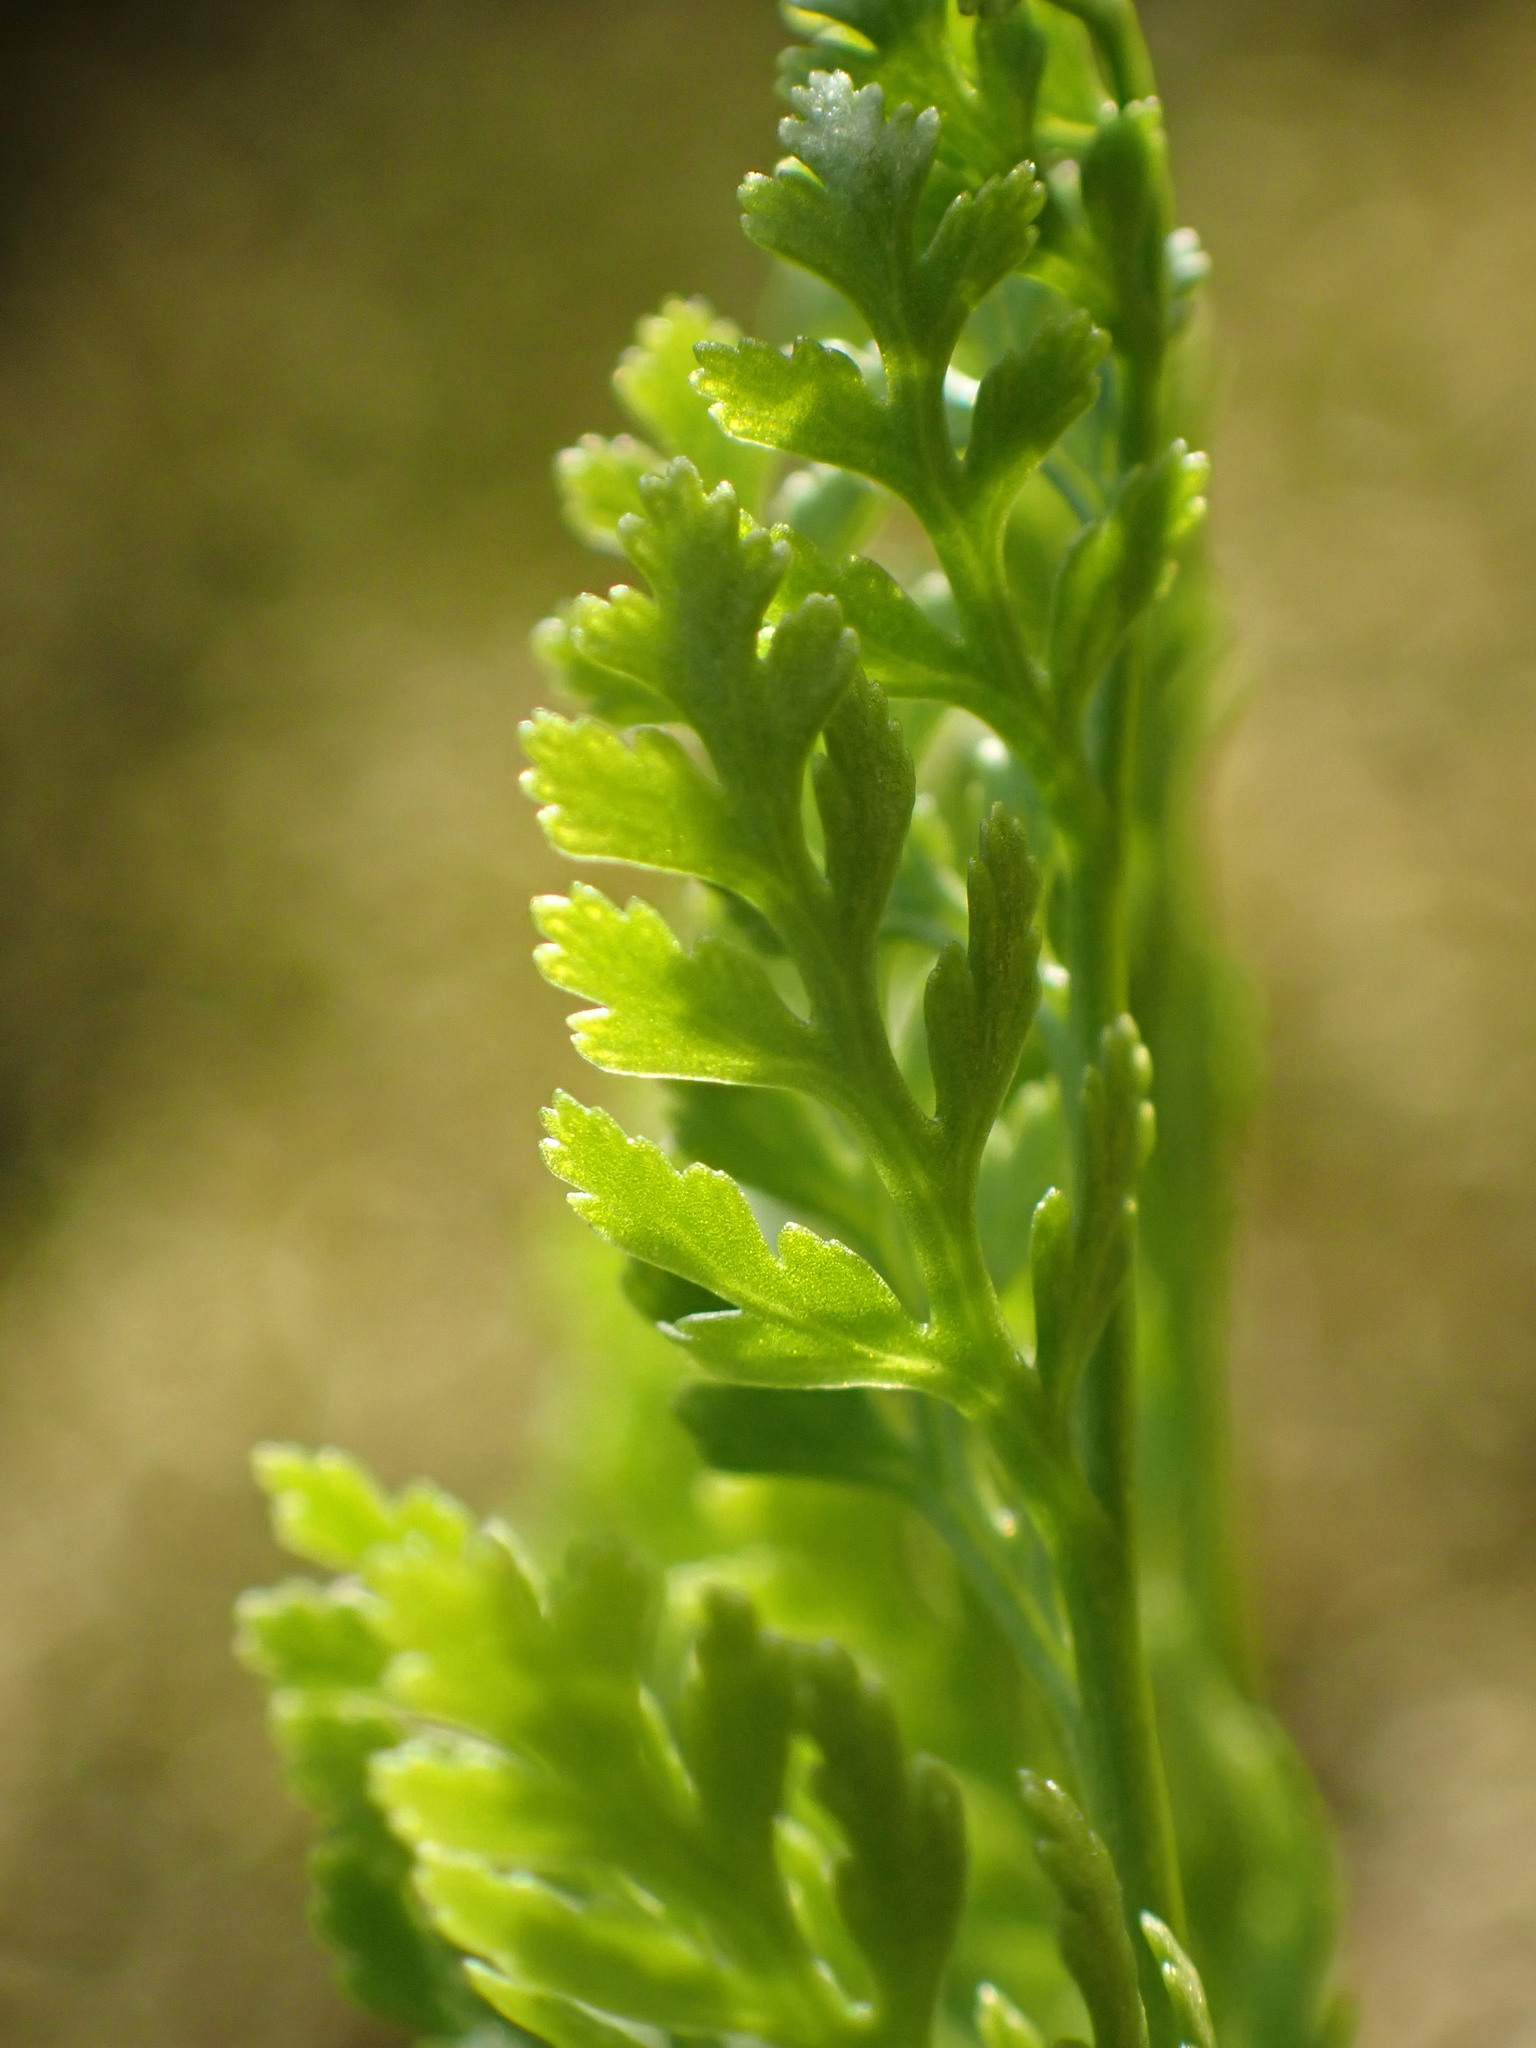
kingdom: Plantae
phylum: Tracheophyta
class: Polypodiopsida
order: Polypodiales
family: Pteridaceae
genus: Cryptogramma
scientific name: Cryptogramma acrostichoides
